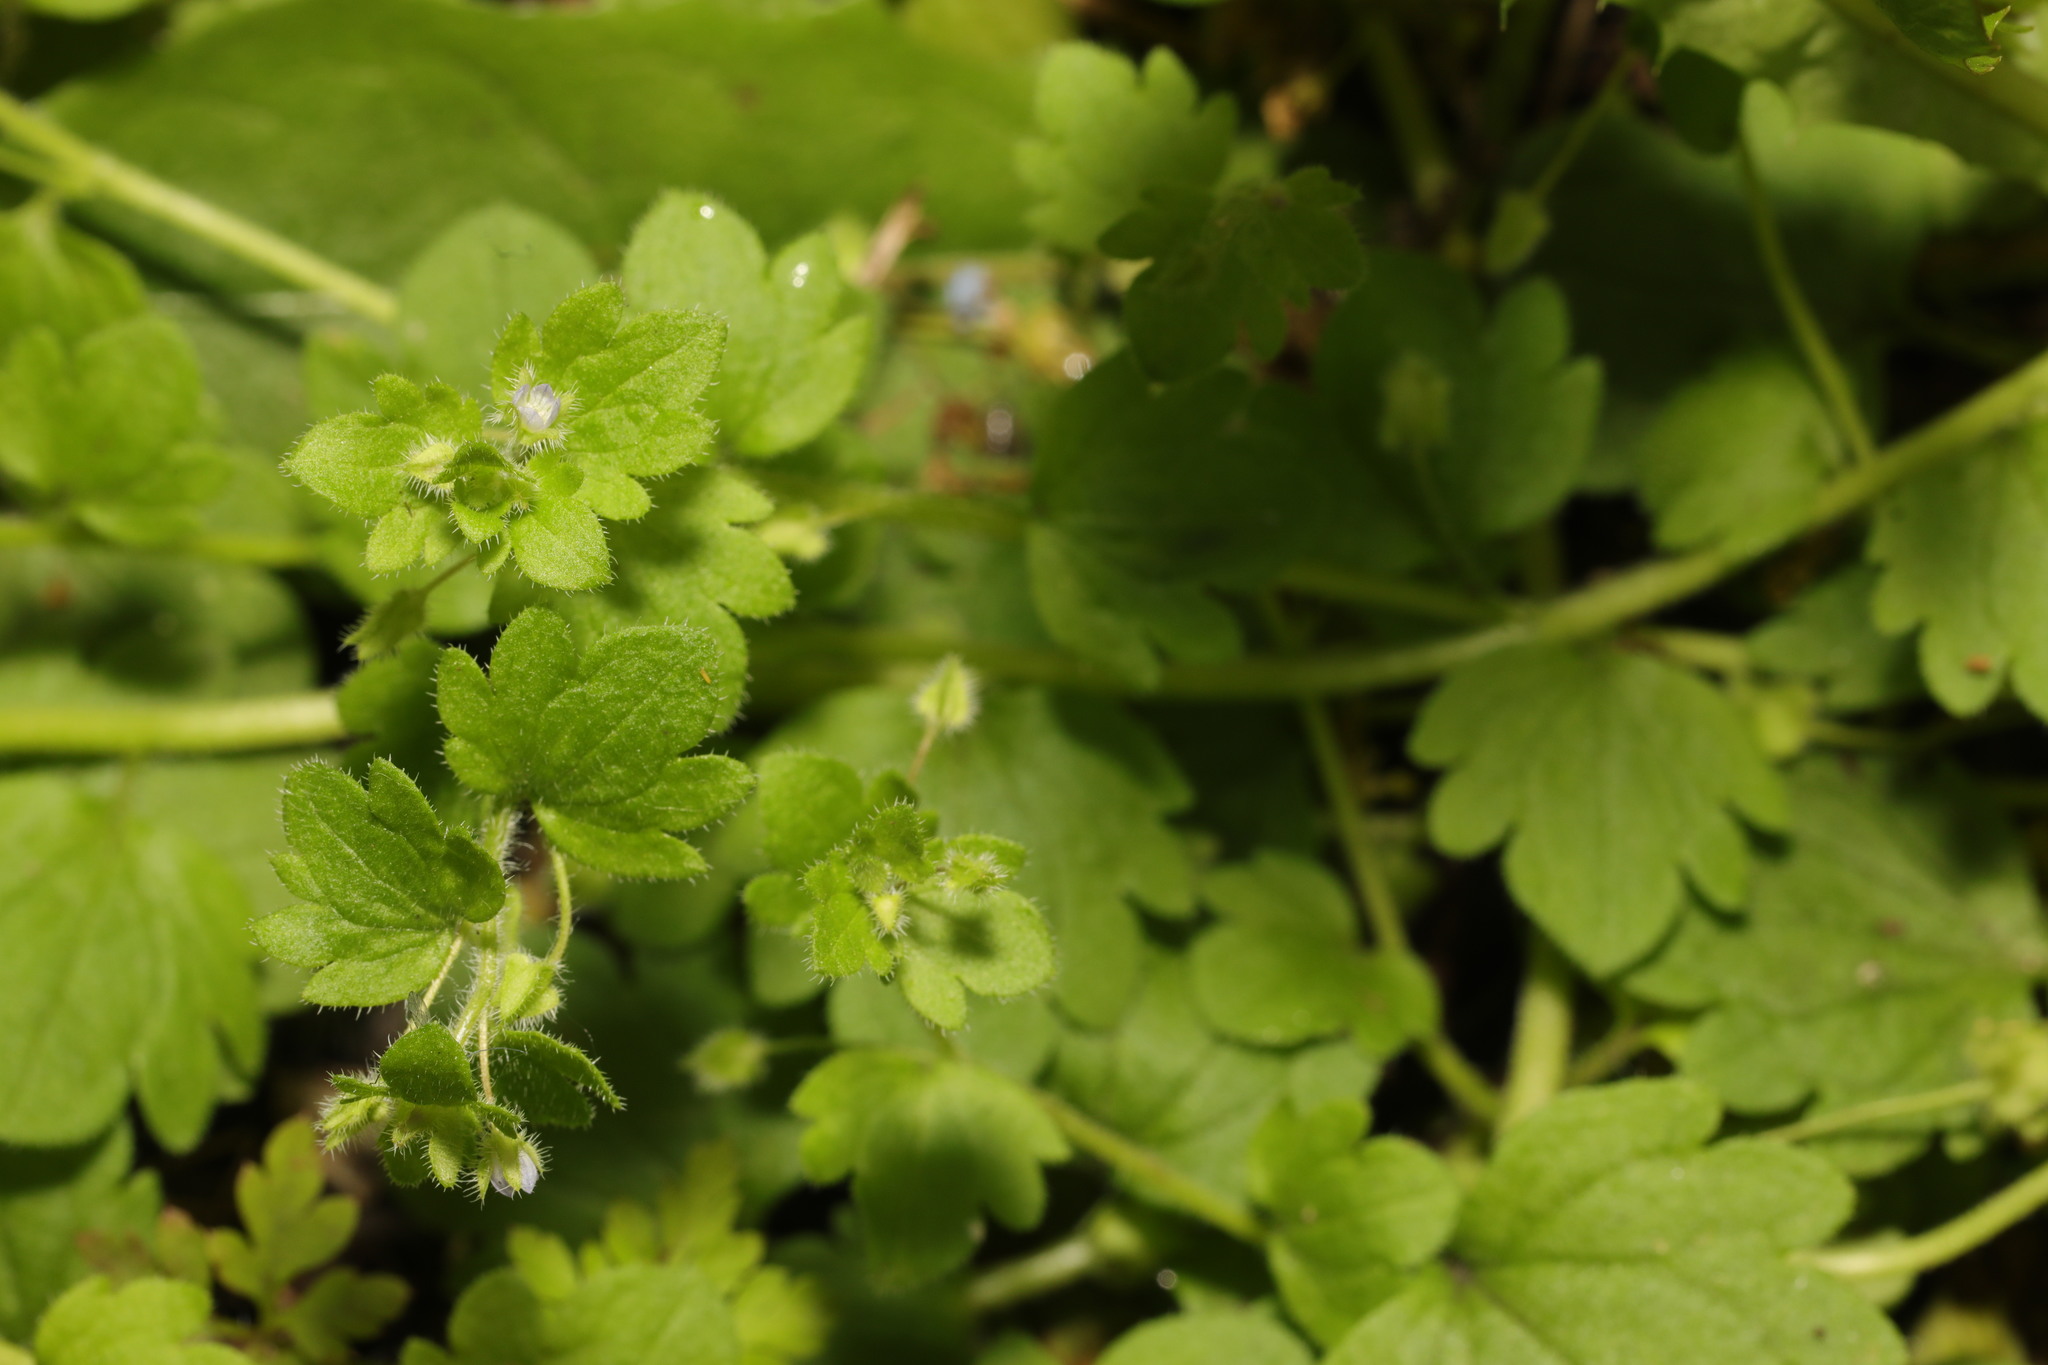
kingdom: Plantae
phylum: Tracheophyta
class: Magnoliopsida
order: Lamiales
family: Plantaginaceae
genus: Veronica
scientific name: Veronica sublobata
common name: False ivy-leaved speedwell
